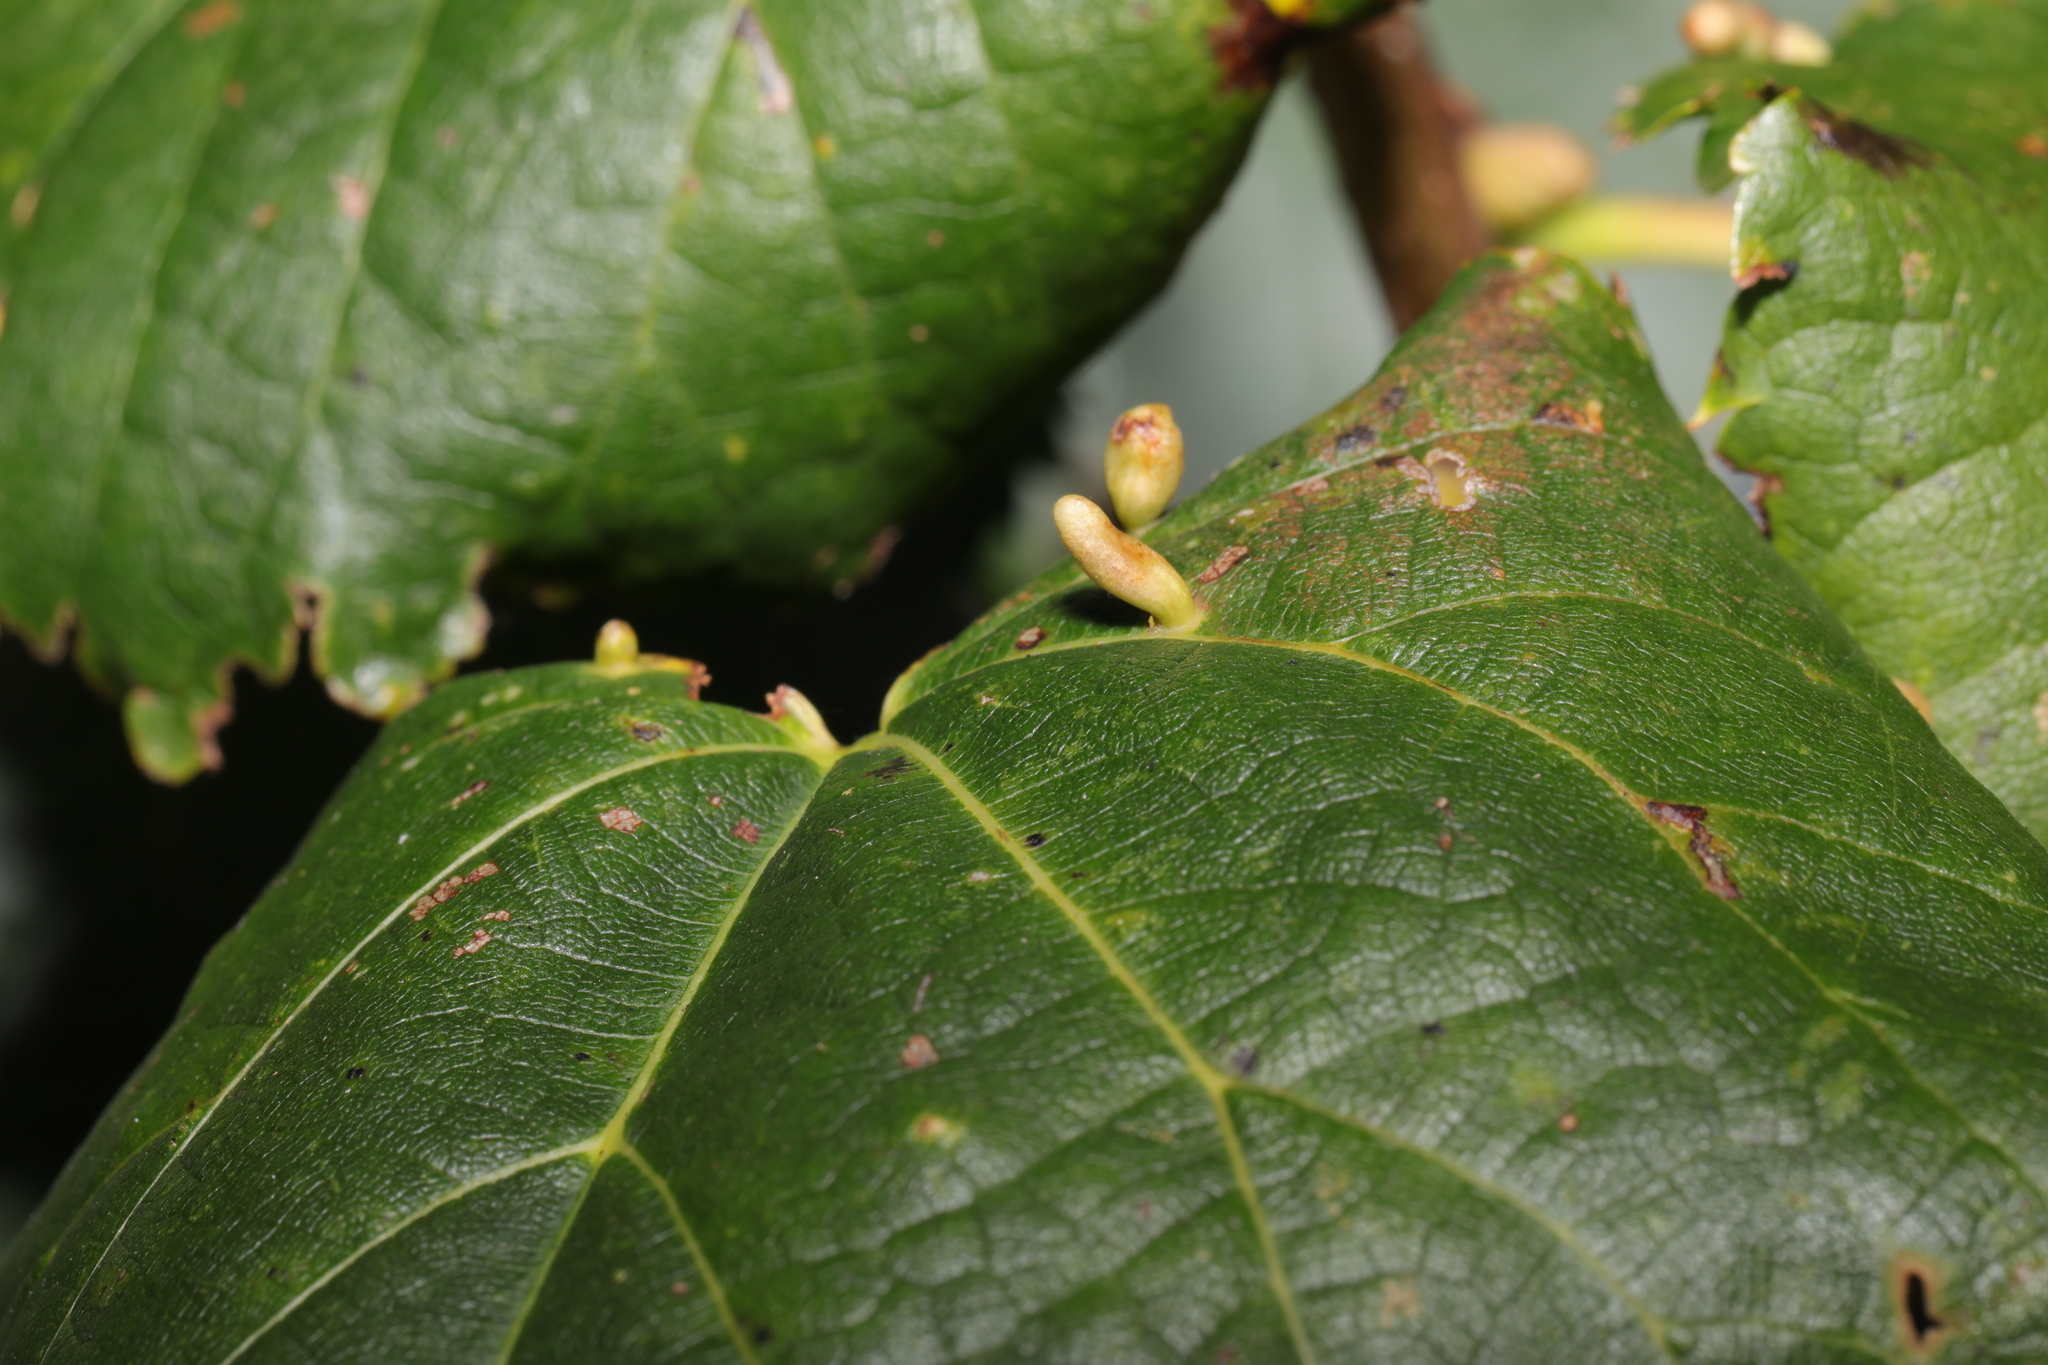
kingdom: Animalia
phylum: Arthropoda
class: Arachnida
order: Trombidiformes
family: Eriophyidae
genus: Eriophyes
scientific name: Eriophyes tiliae
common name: Red nail gall mite
